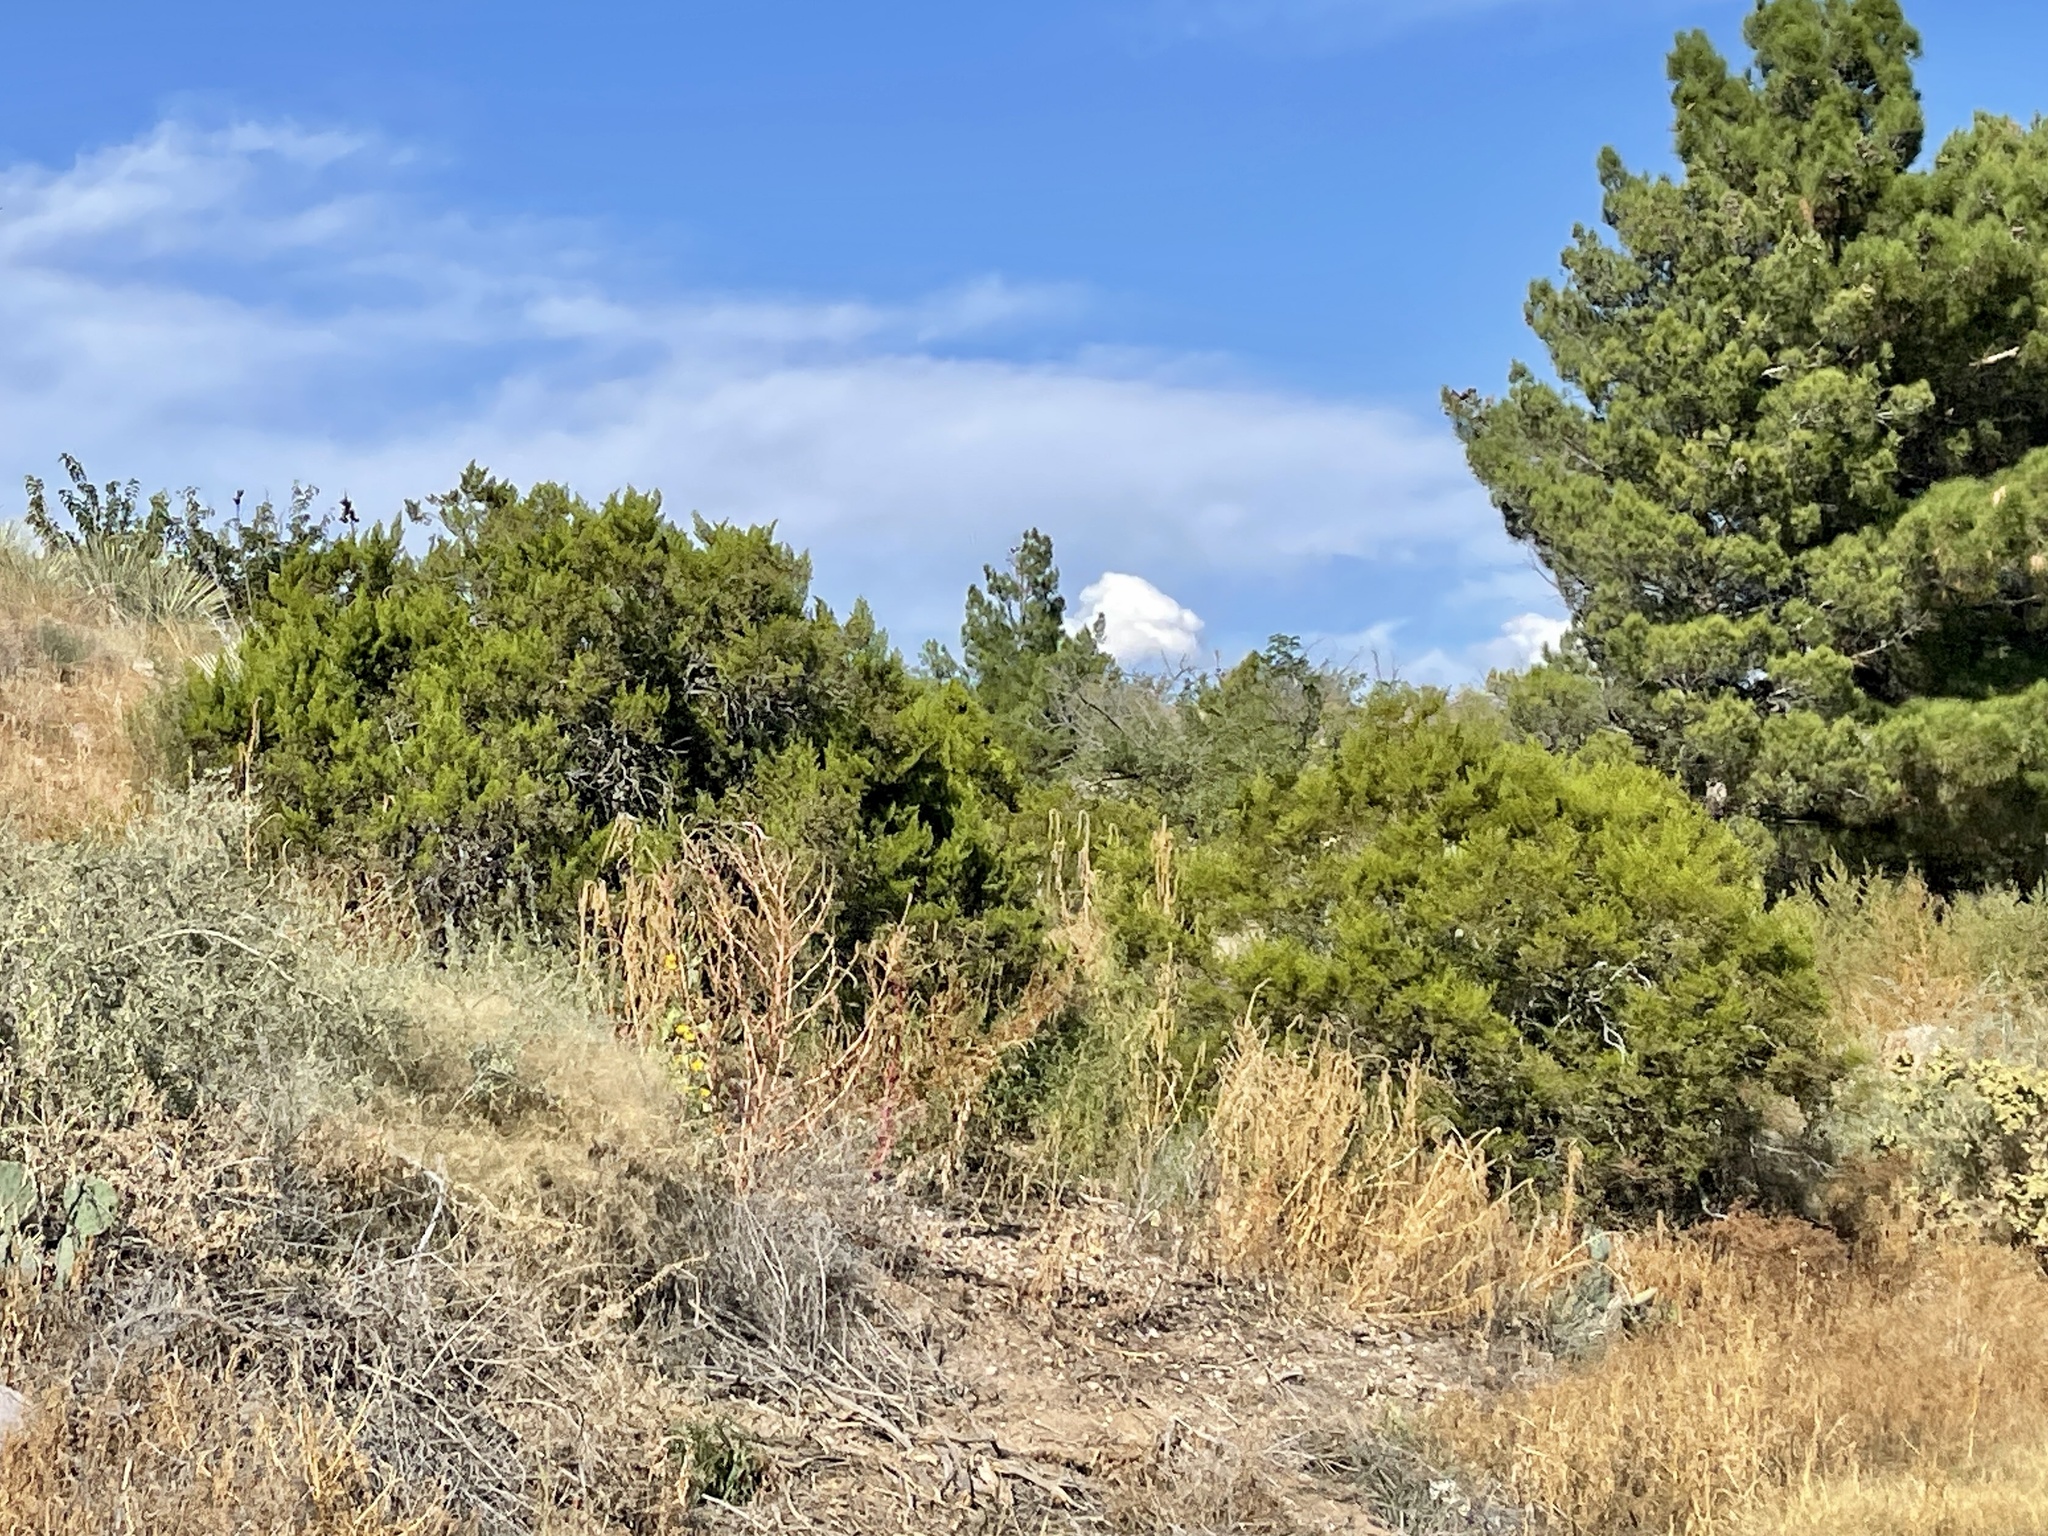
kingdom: Plantae
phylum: Tracheophyta
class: Magnoliopsida
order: Zygophyllales
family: Zygophyllaceae
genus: Larrea
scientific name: Larrea tridentata
